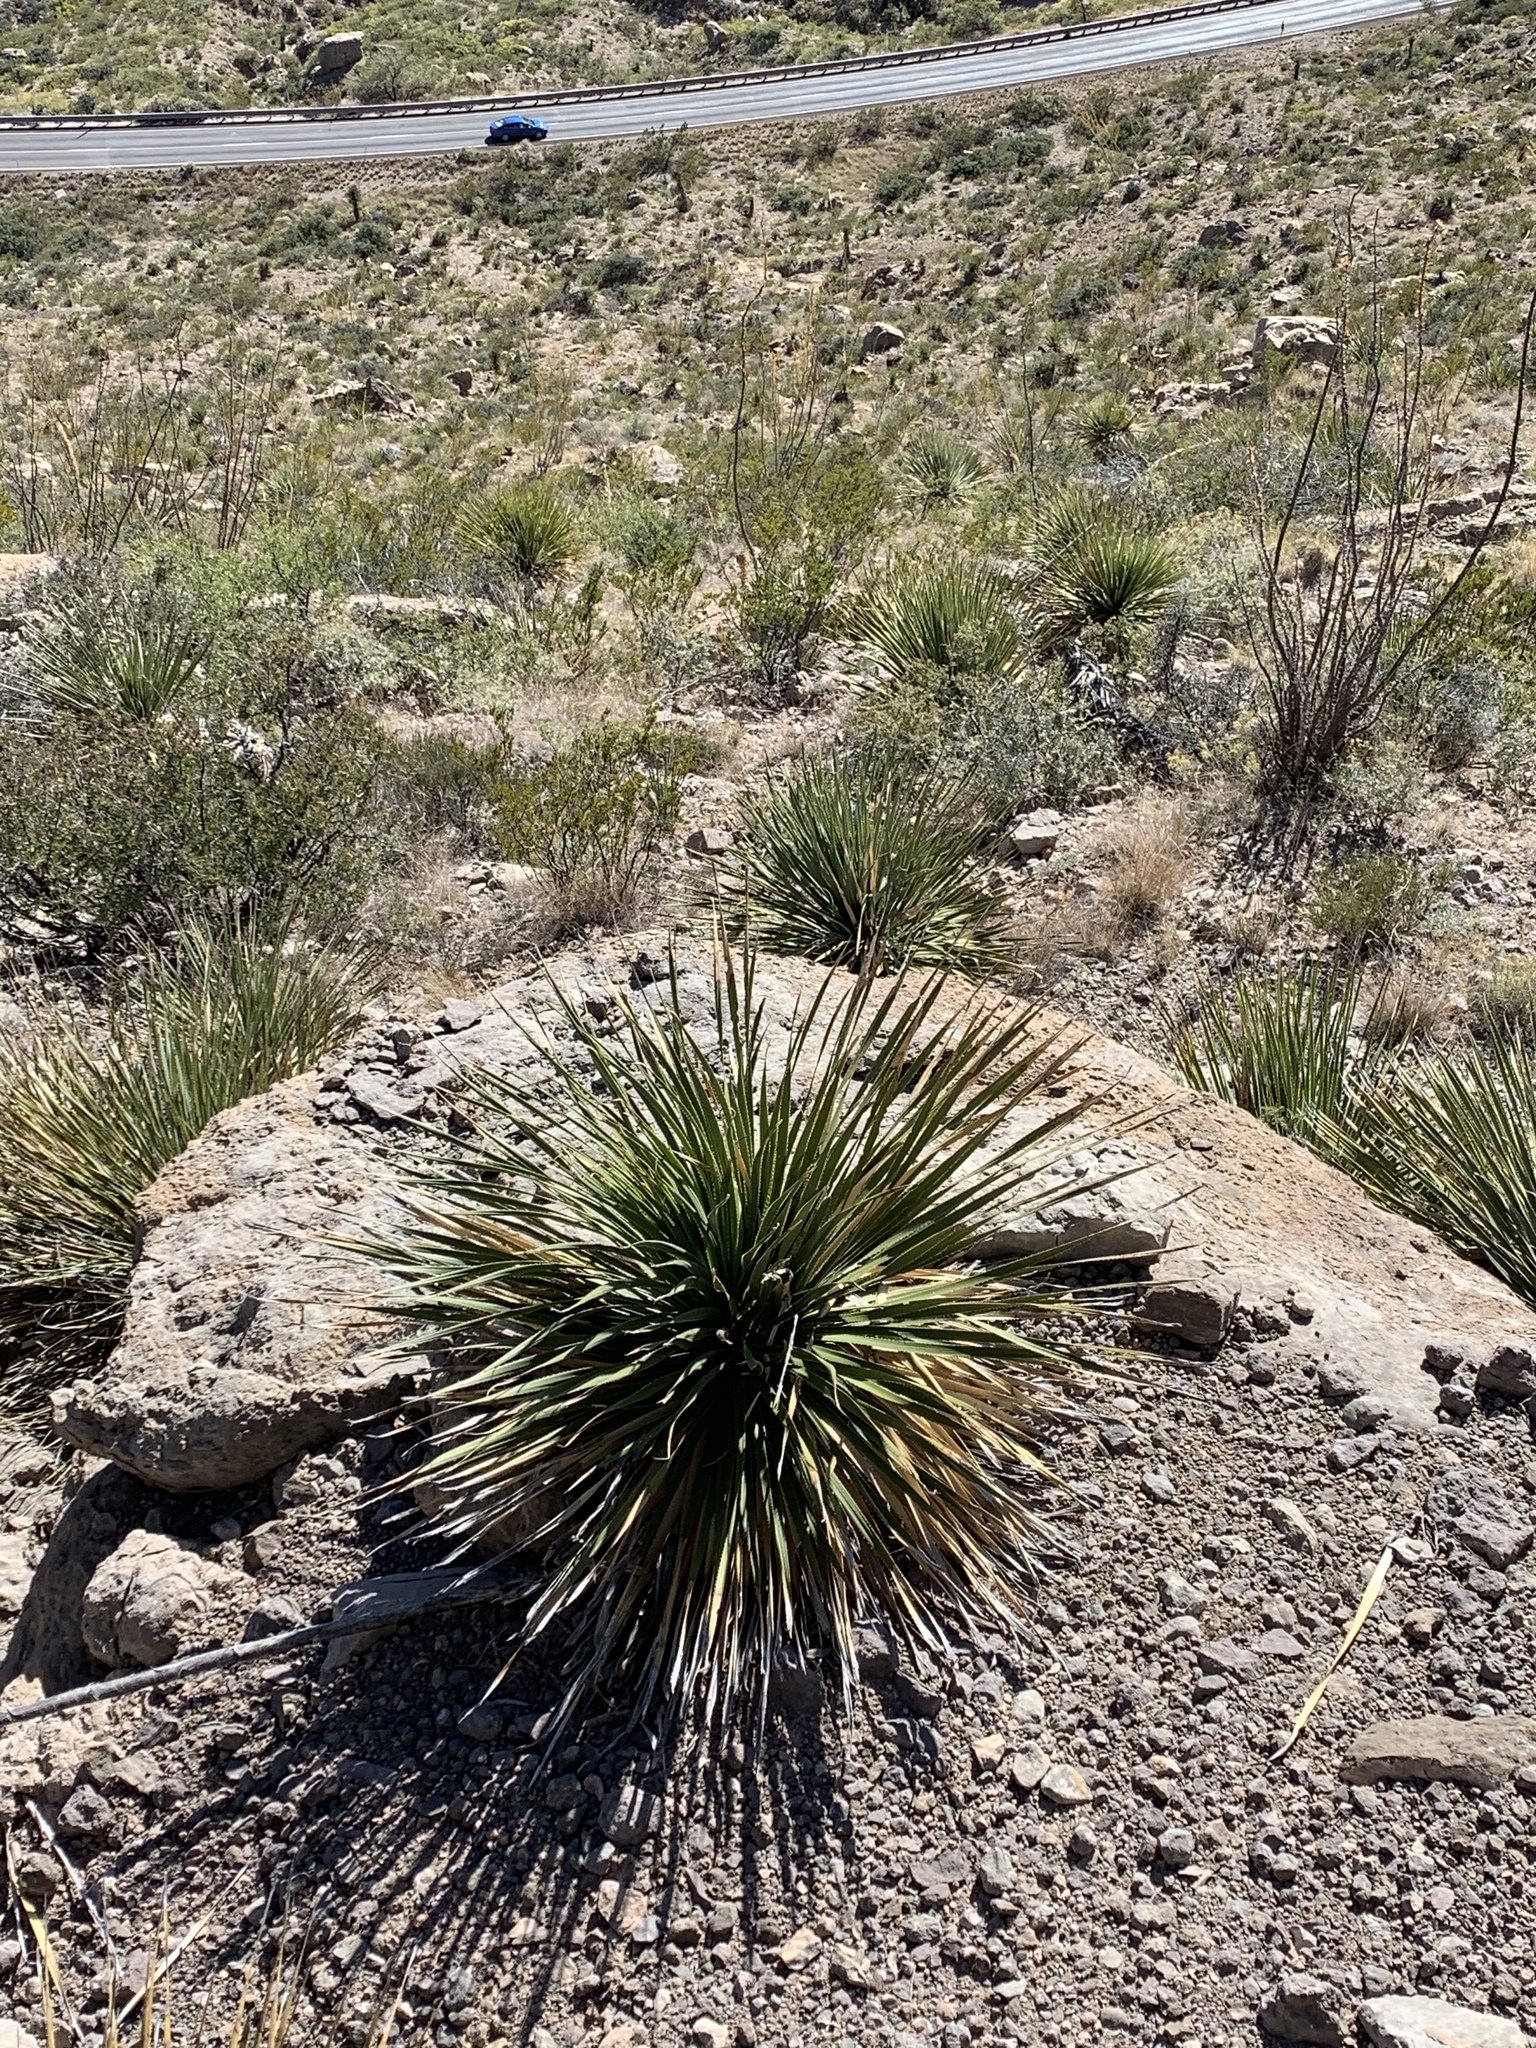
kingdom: Plantae
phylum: Tracheophyta
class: Liliopsida
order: Asparagales
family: Asparagaceae
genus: Dasylirion
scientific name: Dasylirion wheeleri
